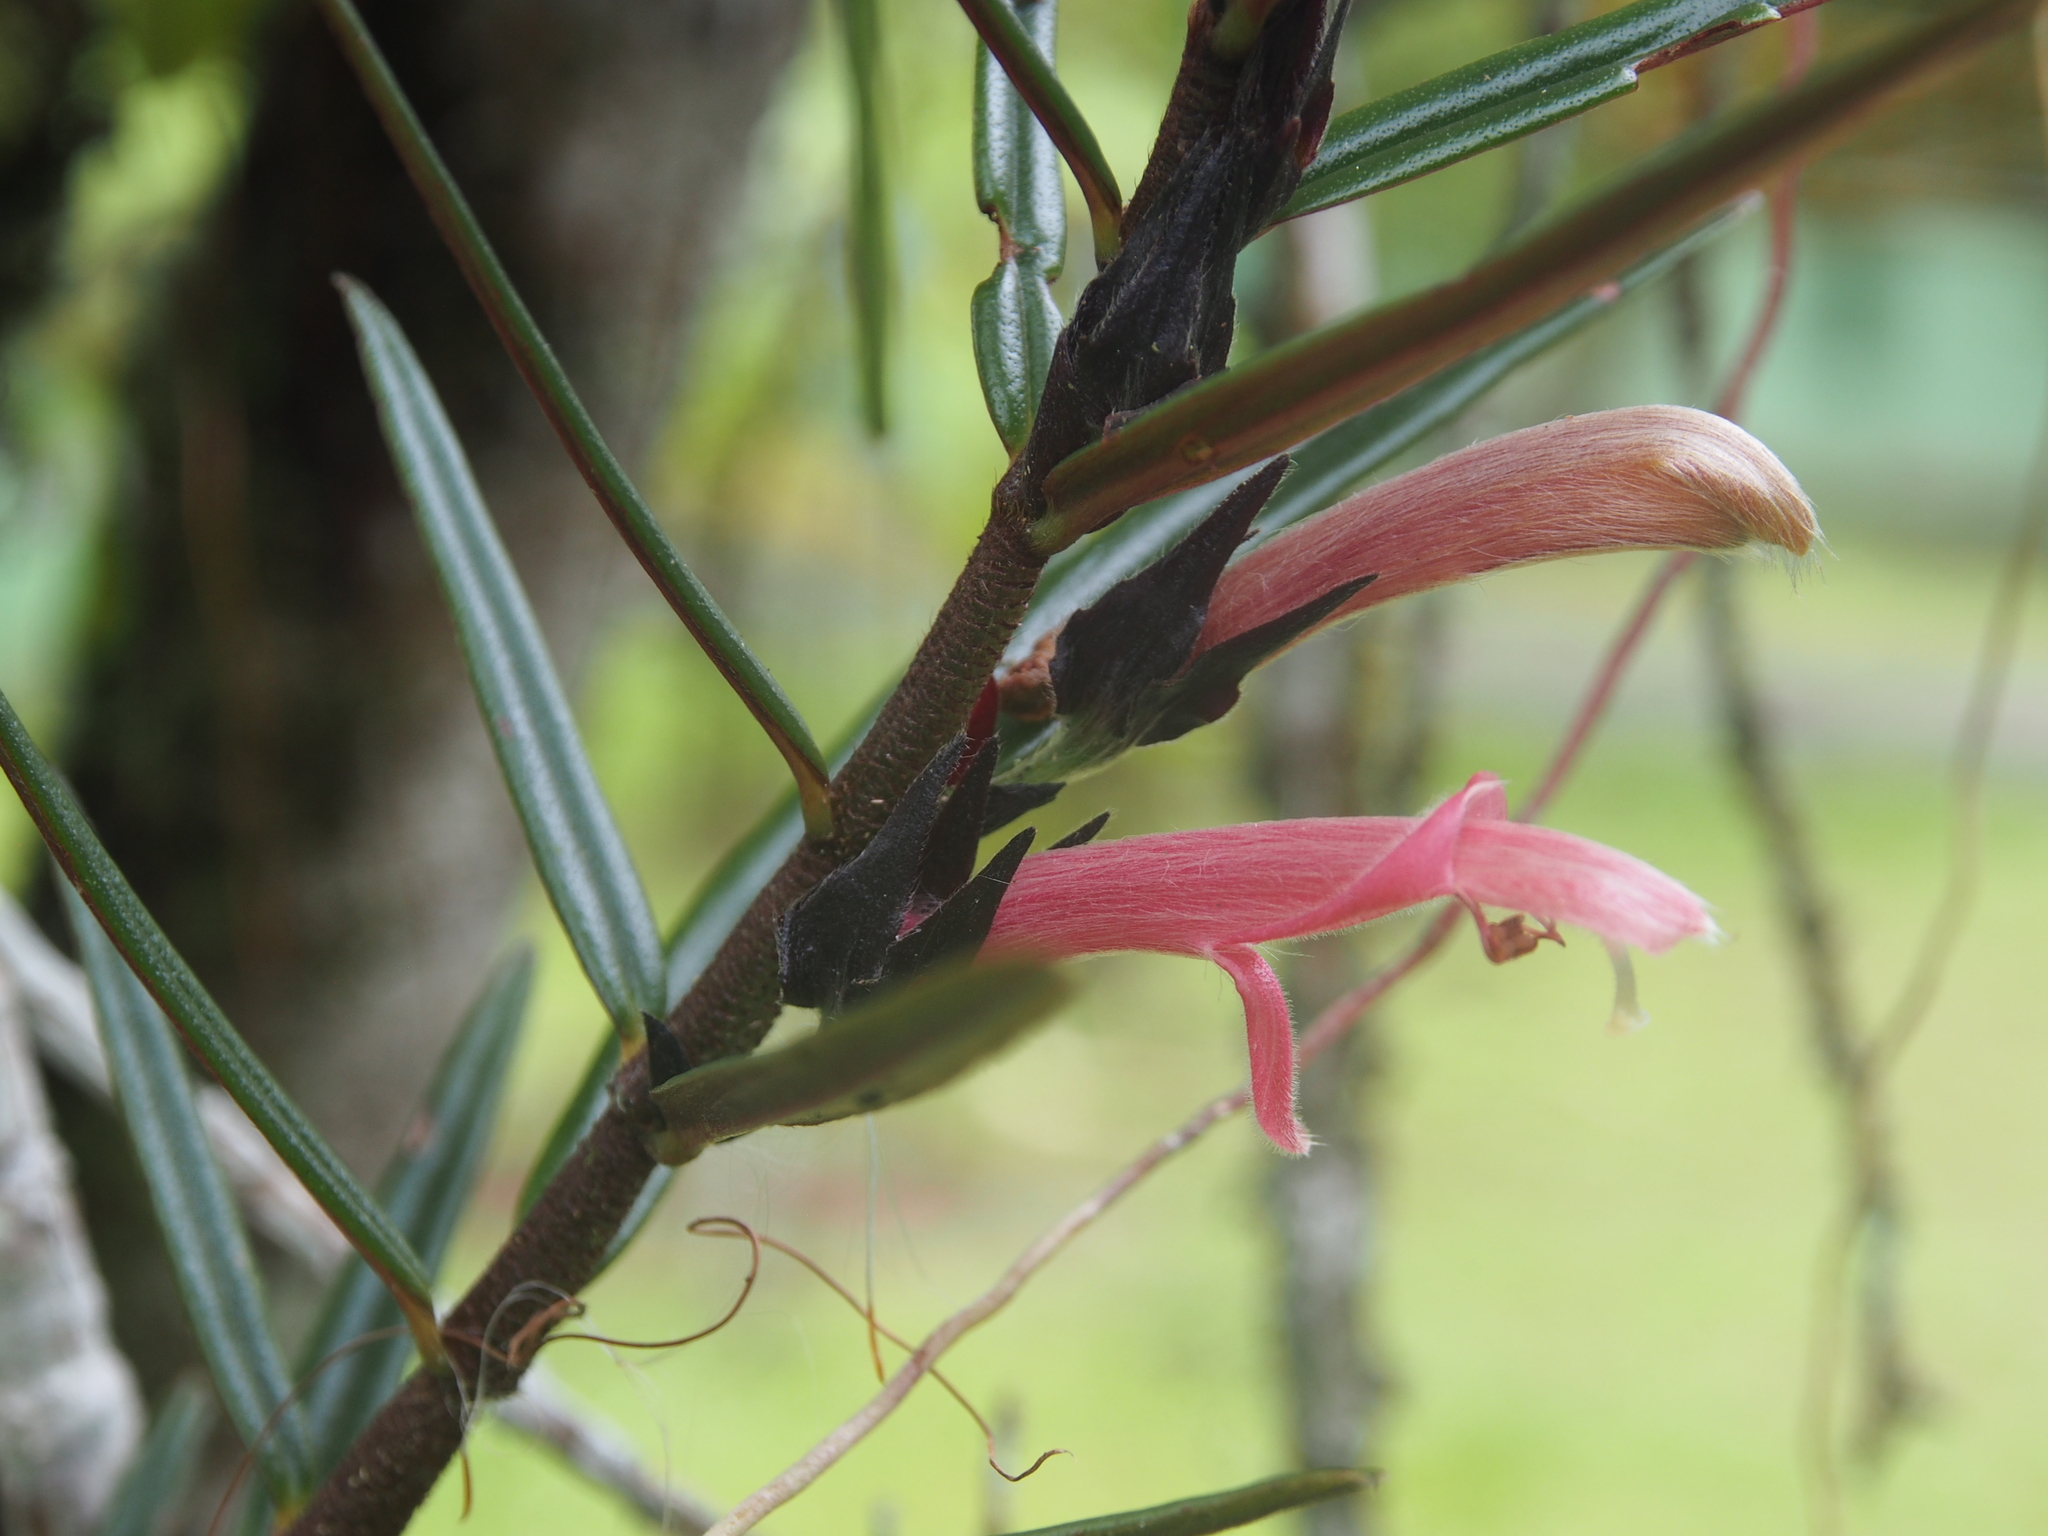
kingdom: Plantae
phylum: Tracheophyta
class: Magnoliopsida
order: Lamiales
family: Gesneriaceae
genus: Columnea
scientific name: Columnea linearis
